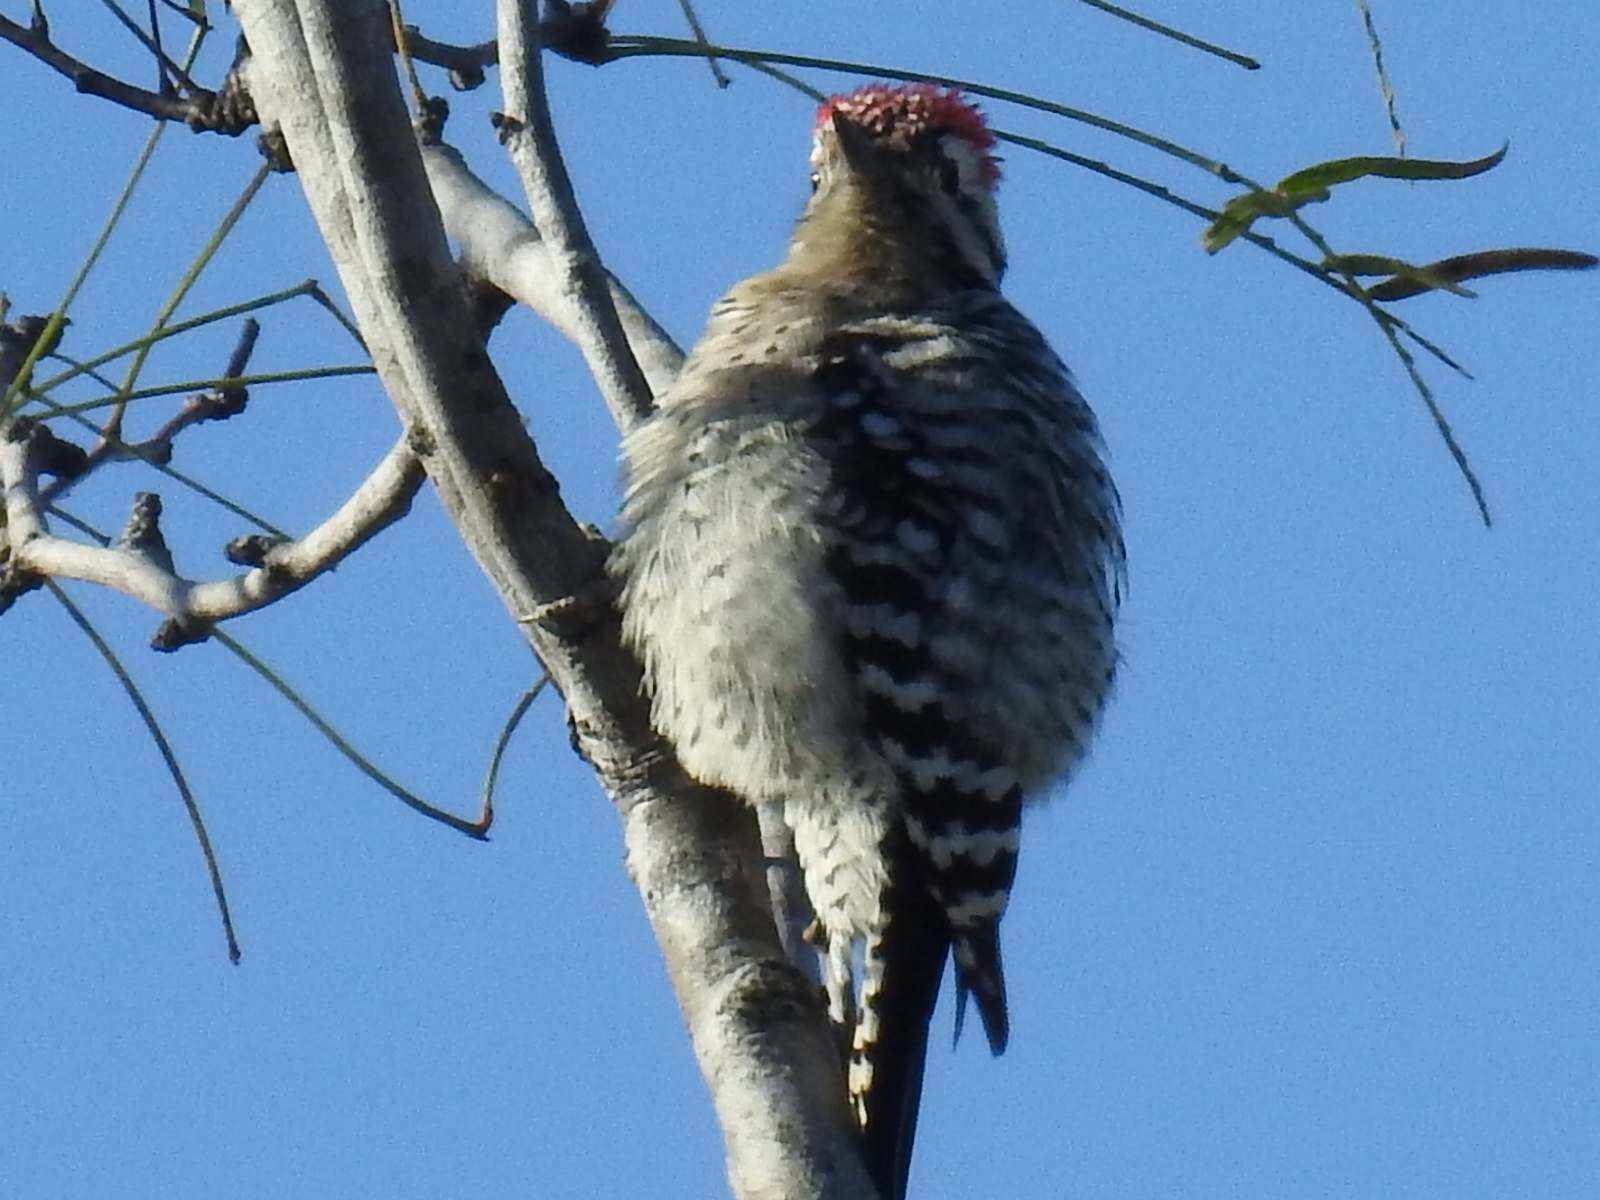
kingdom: Animalia
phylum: Chordata
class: Aves
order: Piciformes
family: Picidae
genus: Dryobates
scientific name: Dryobates scalaris
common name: Ladder-backed woodpecker
